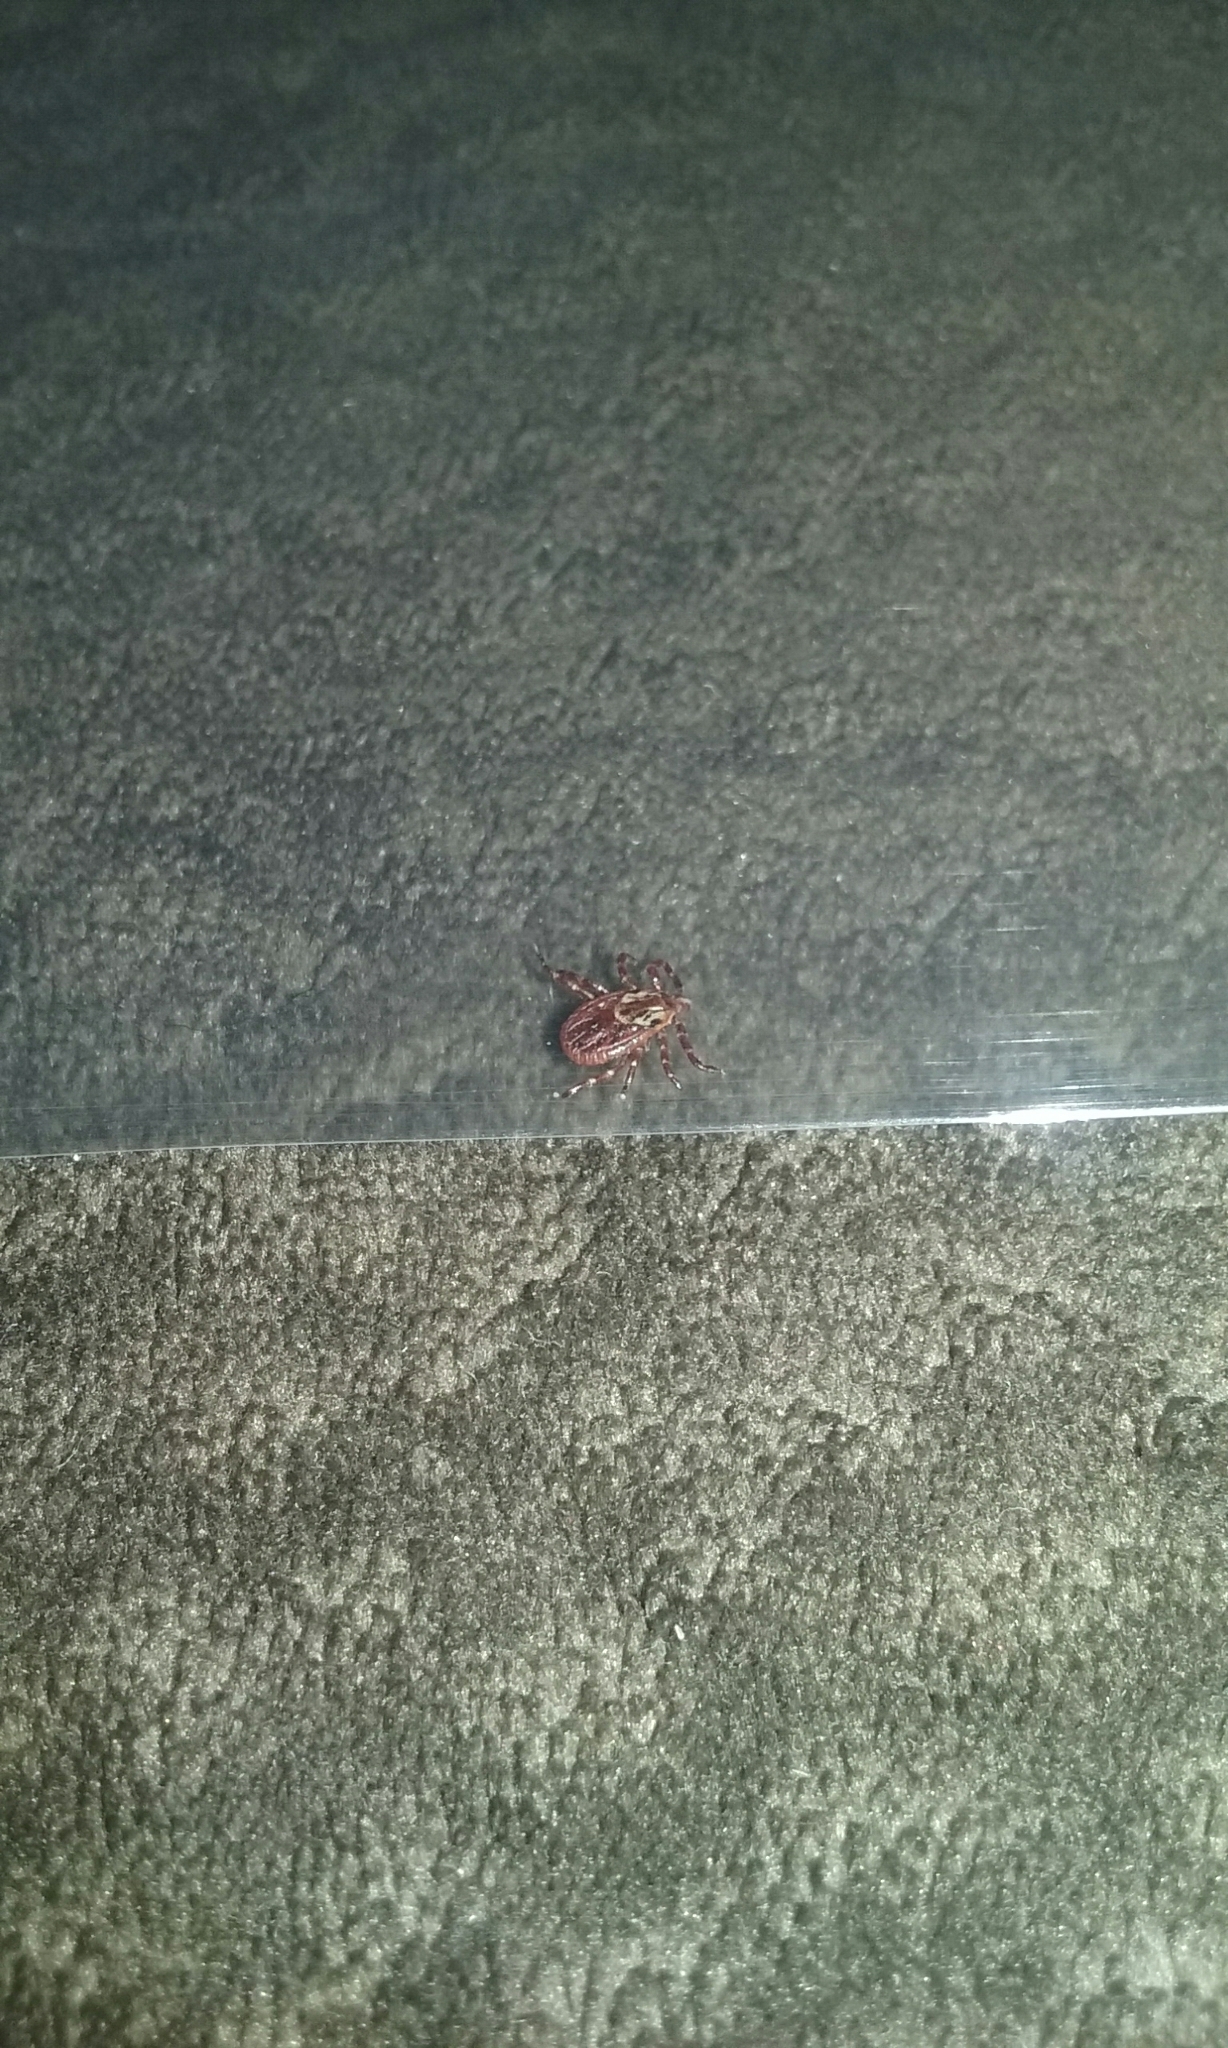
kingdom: Animalia
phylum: Arthropoda
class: Arachnida
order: Ixodida
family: Ixodidae
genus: Dermacentor
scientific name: Dermacentor variabilis
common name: American dog tick
